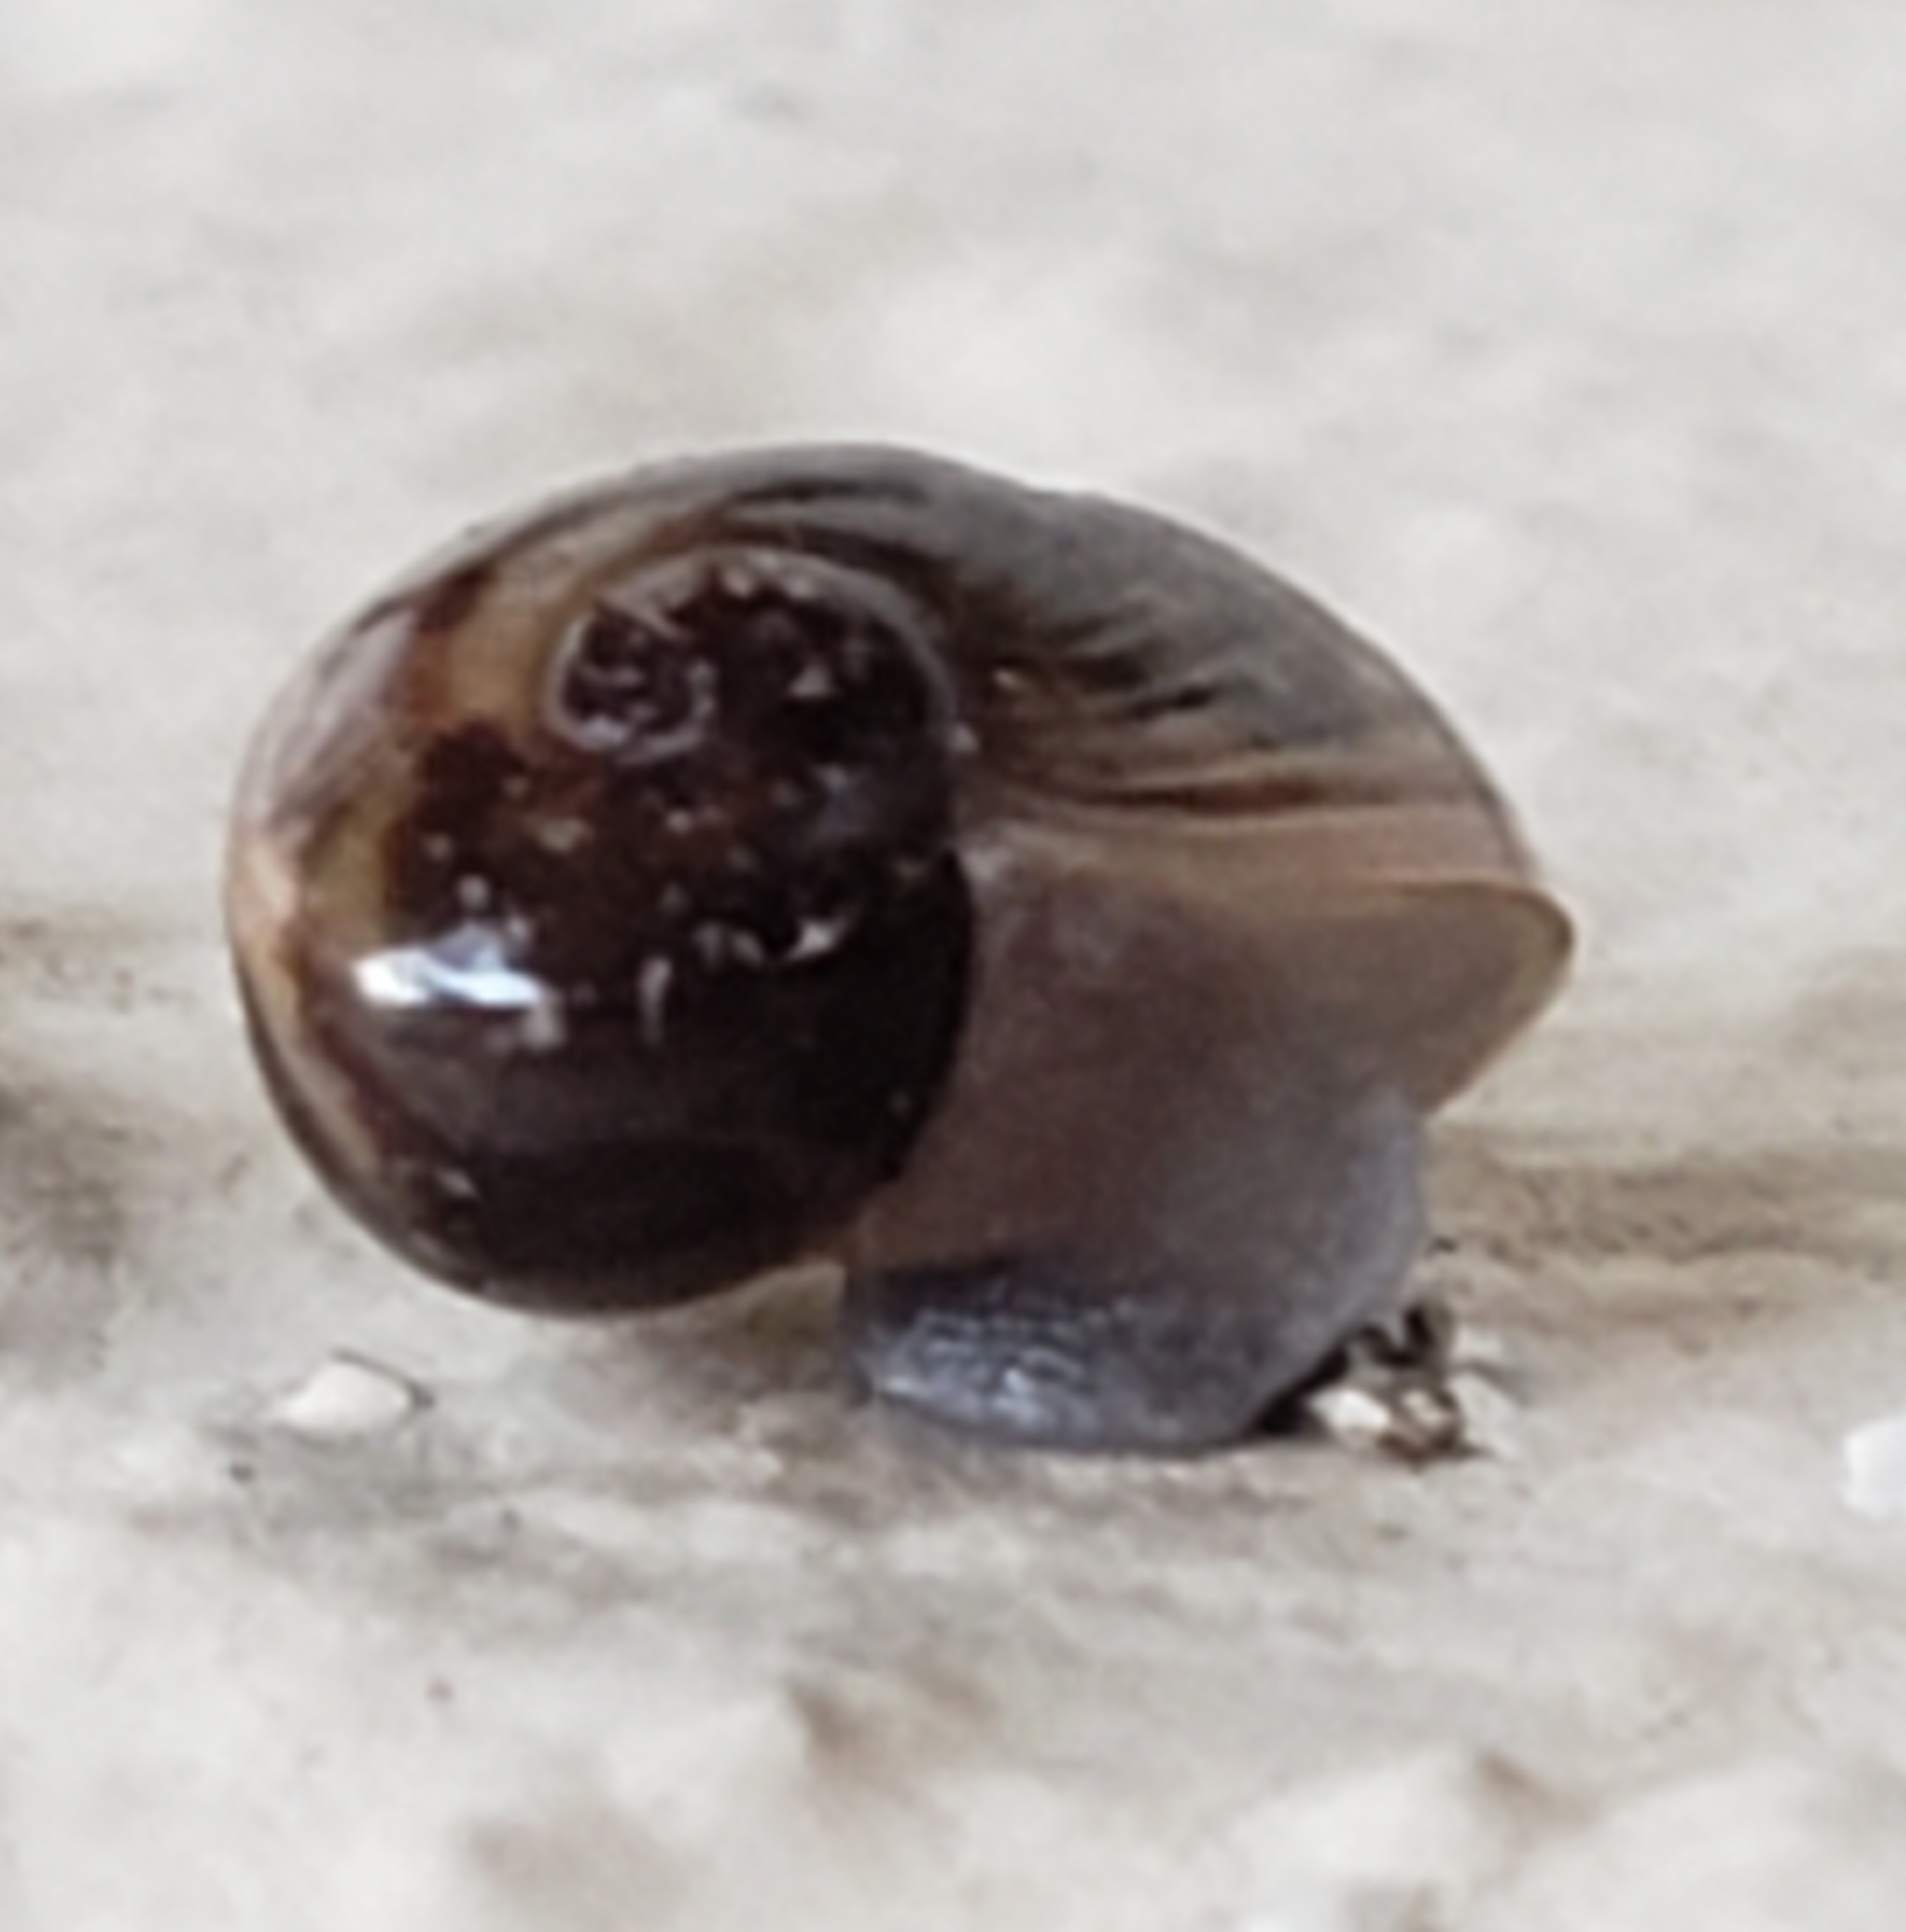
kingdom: Animalia
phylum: Mollusca
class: Gastropoda
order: Stylommatophora
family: Zachrysiidae
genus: Zachrysia
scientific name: Zachrysia provisoria
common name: Garden zachrysia
